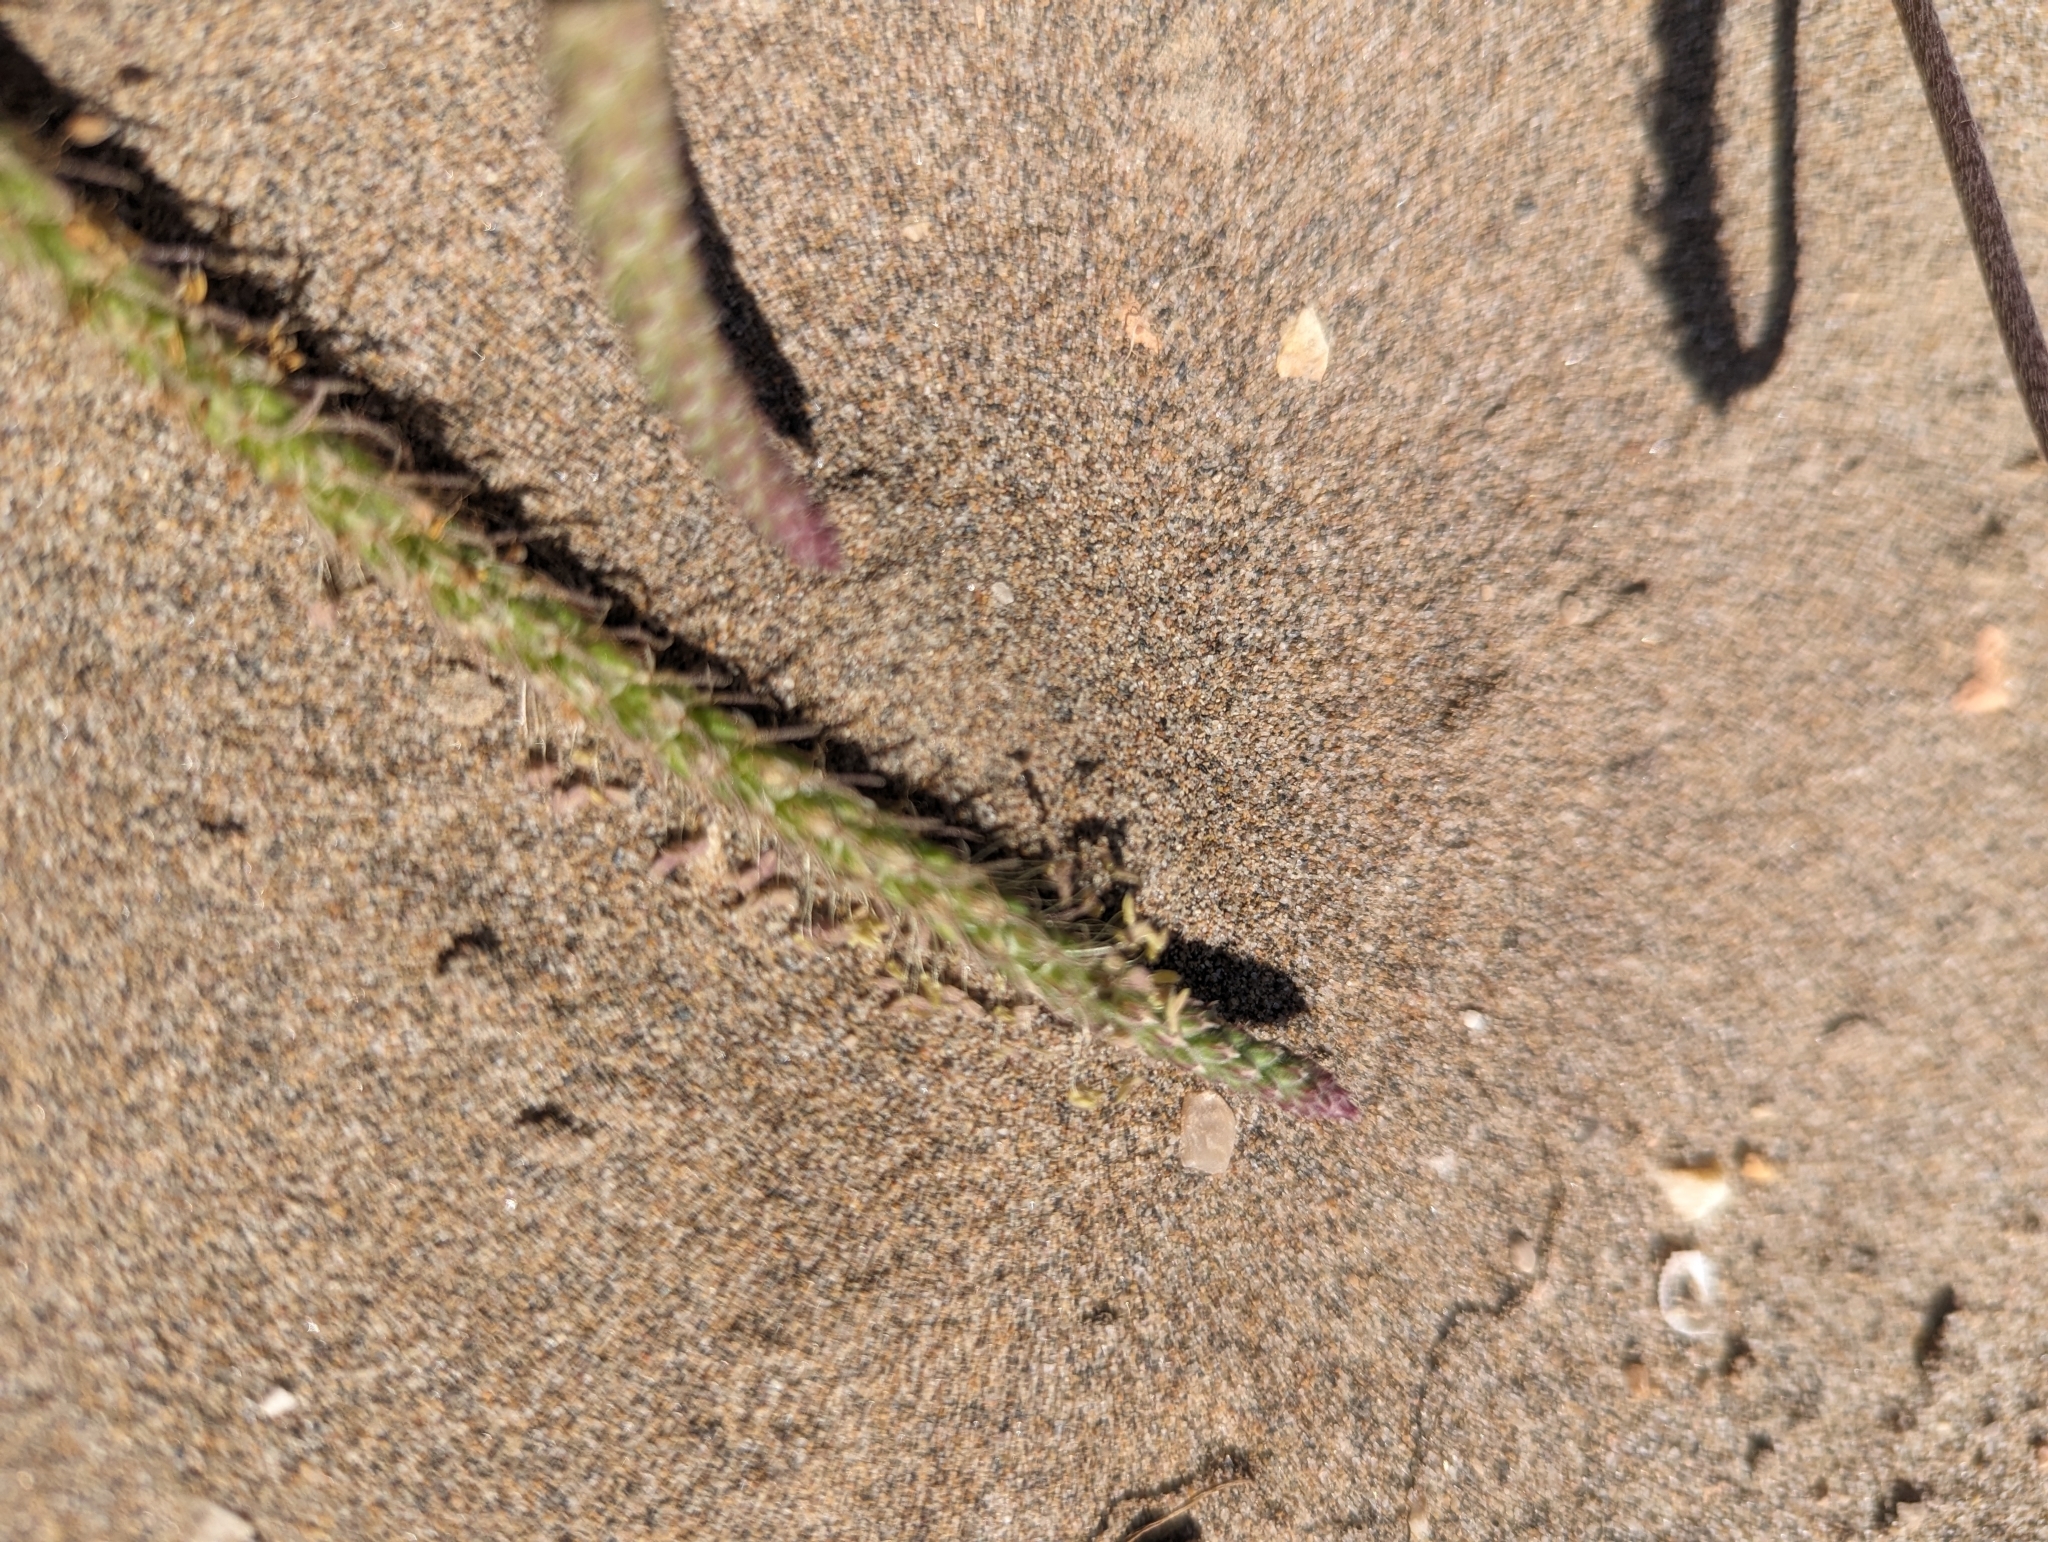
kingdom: Plantae
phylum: Tracheophyta
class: Magnoliopsida
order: Lamiales
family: Plantaginaceae
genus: Plantago
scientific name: Plantago coronopus
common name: Buck's-horn plantain
